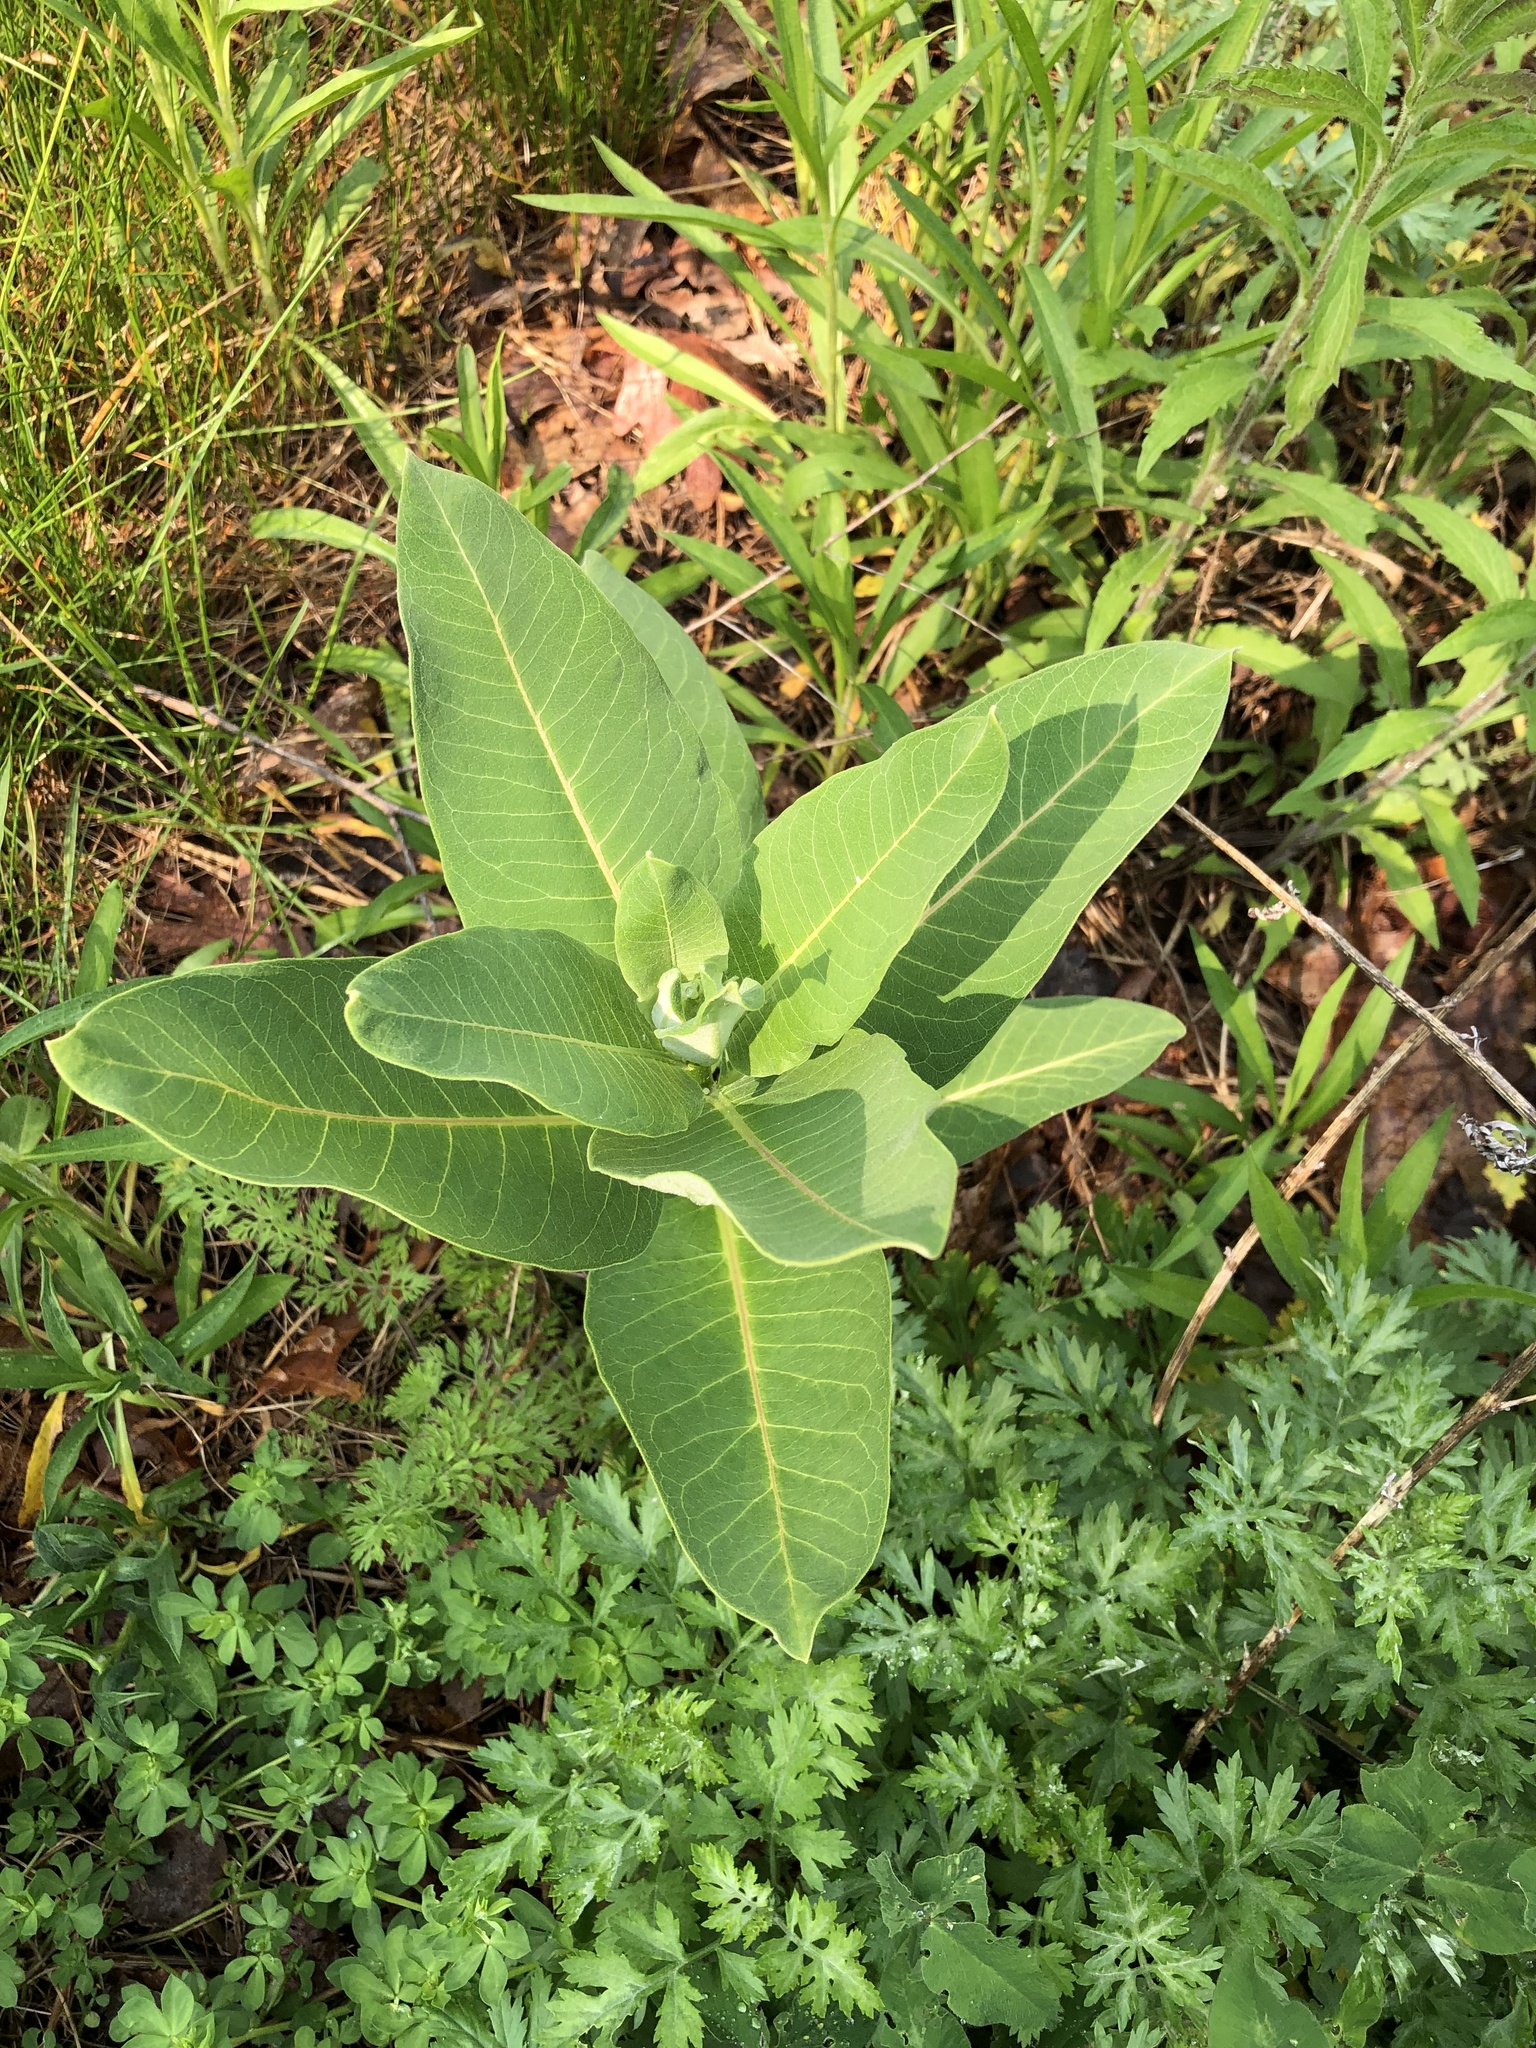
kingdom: Plantae
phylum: Tracheophyta
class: Magnoliopsida
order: Gentianales
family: Apocynaceae
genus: Asclepias
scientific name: Asclepias syriaca
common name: Common milkweed
